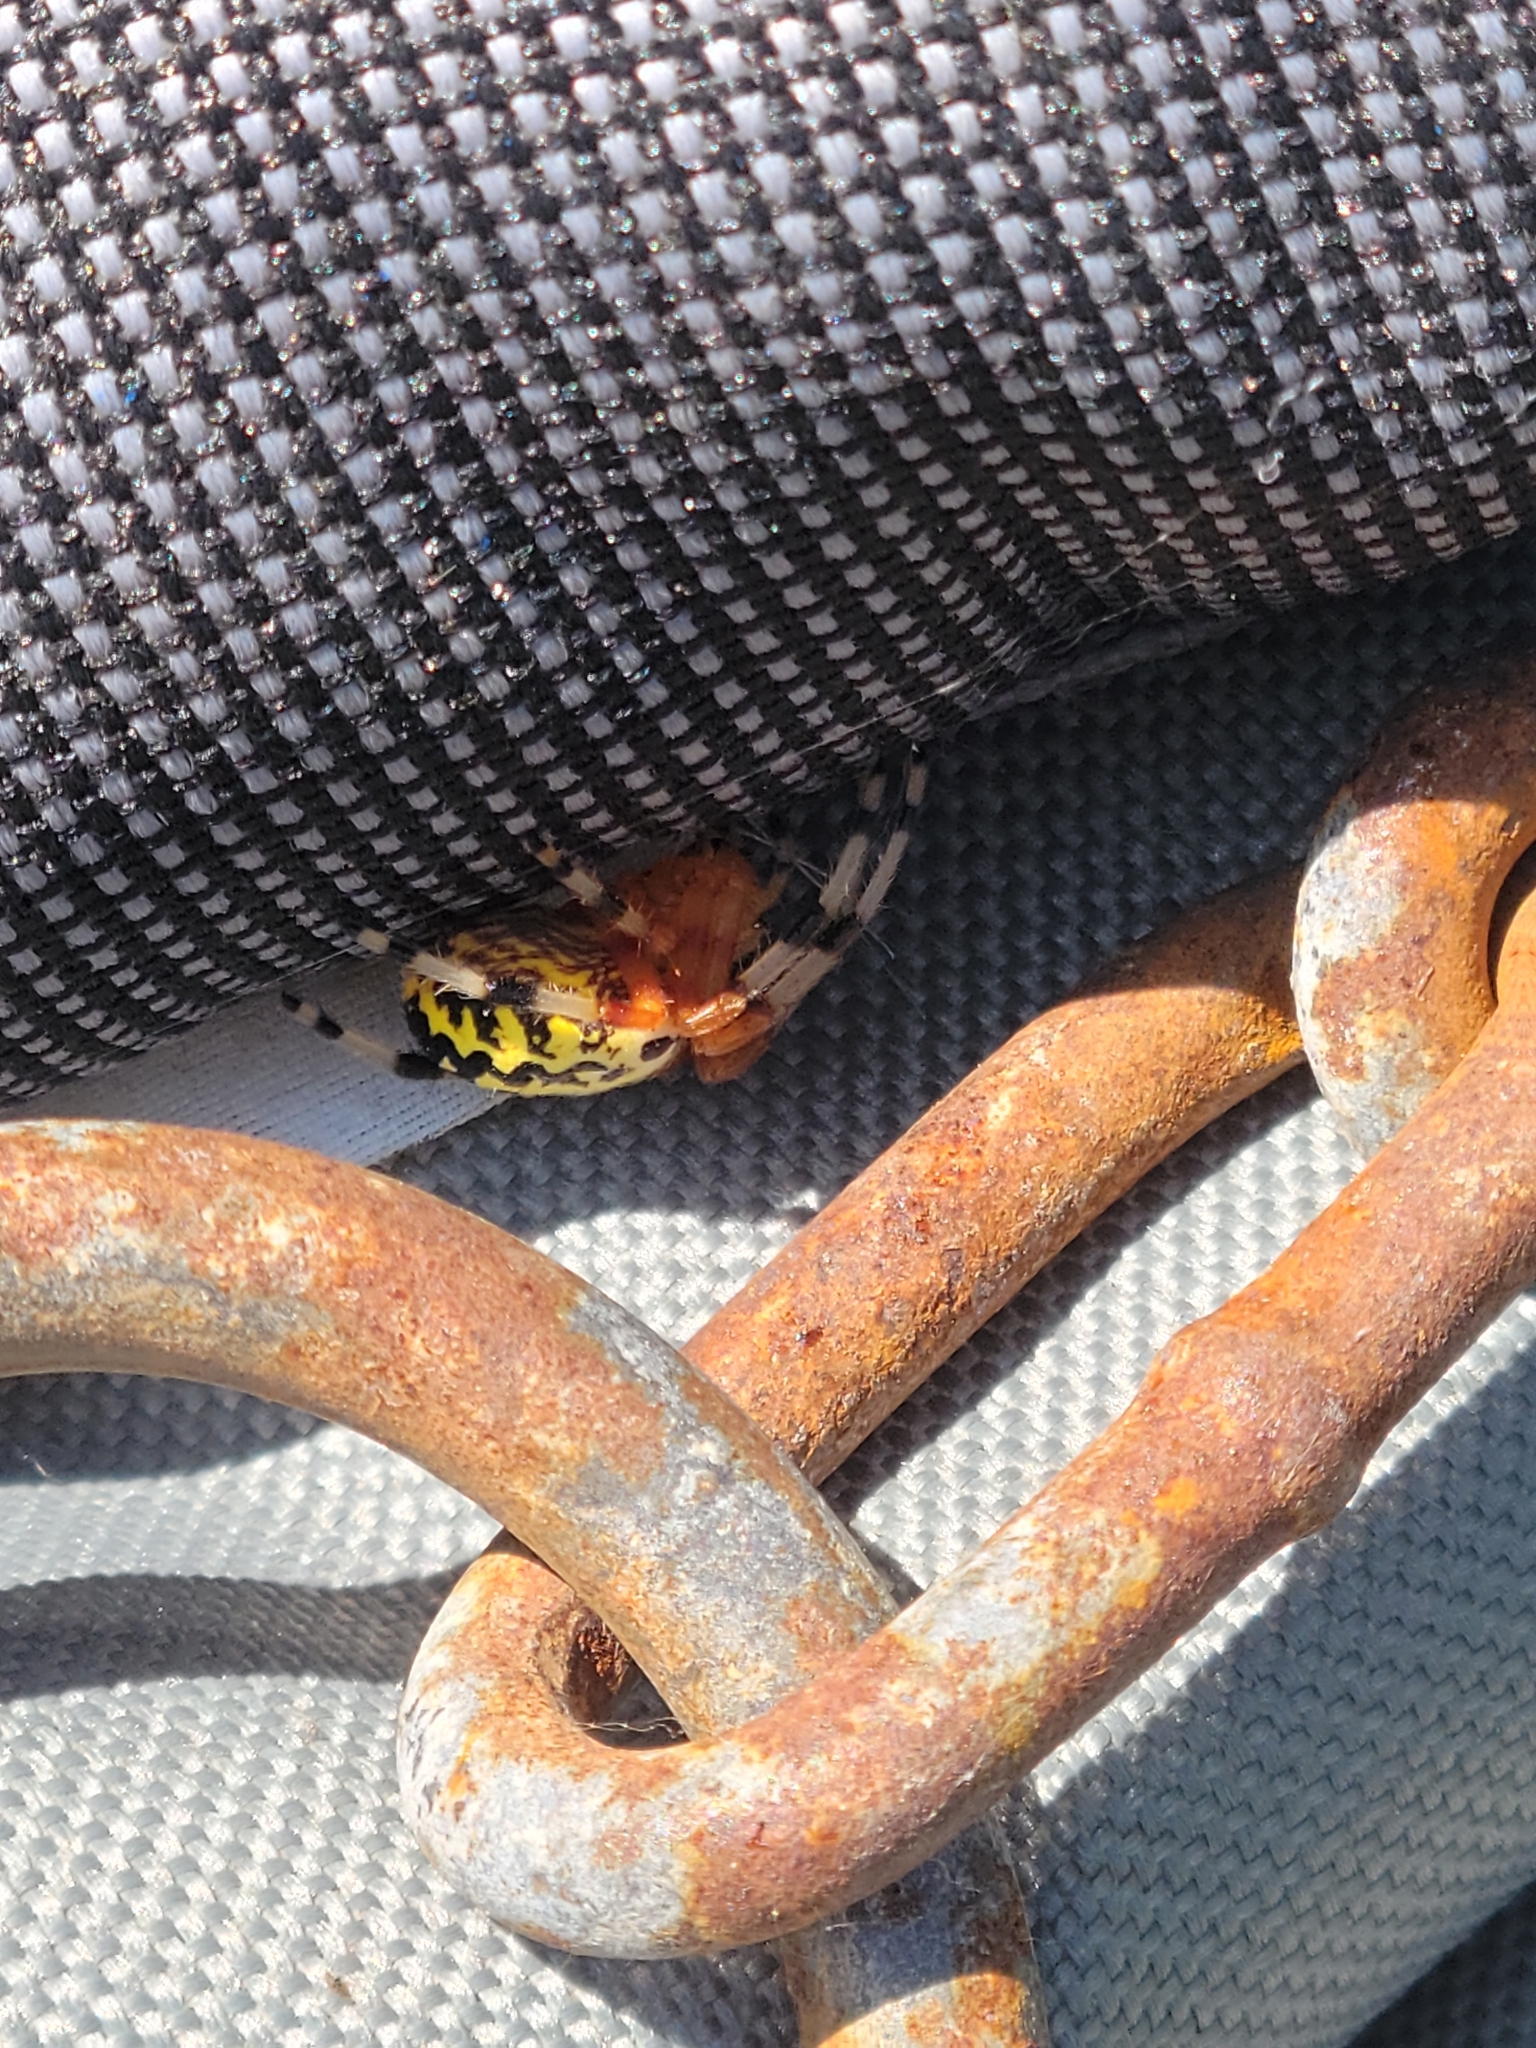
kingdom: Animalia
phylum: Arthropoda
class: Arachnida
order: Araneae
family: Araneidae
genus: Araneus
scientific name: Araneus marmoreus
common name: Marbled orbweaver
